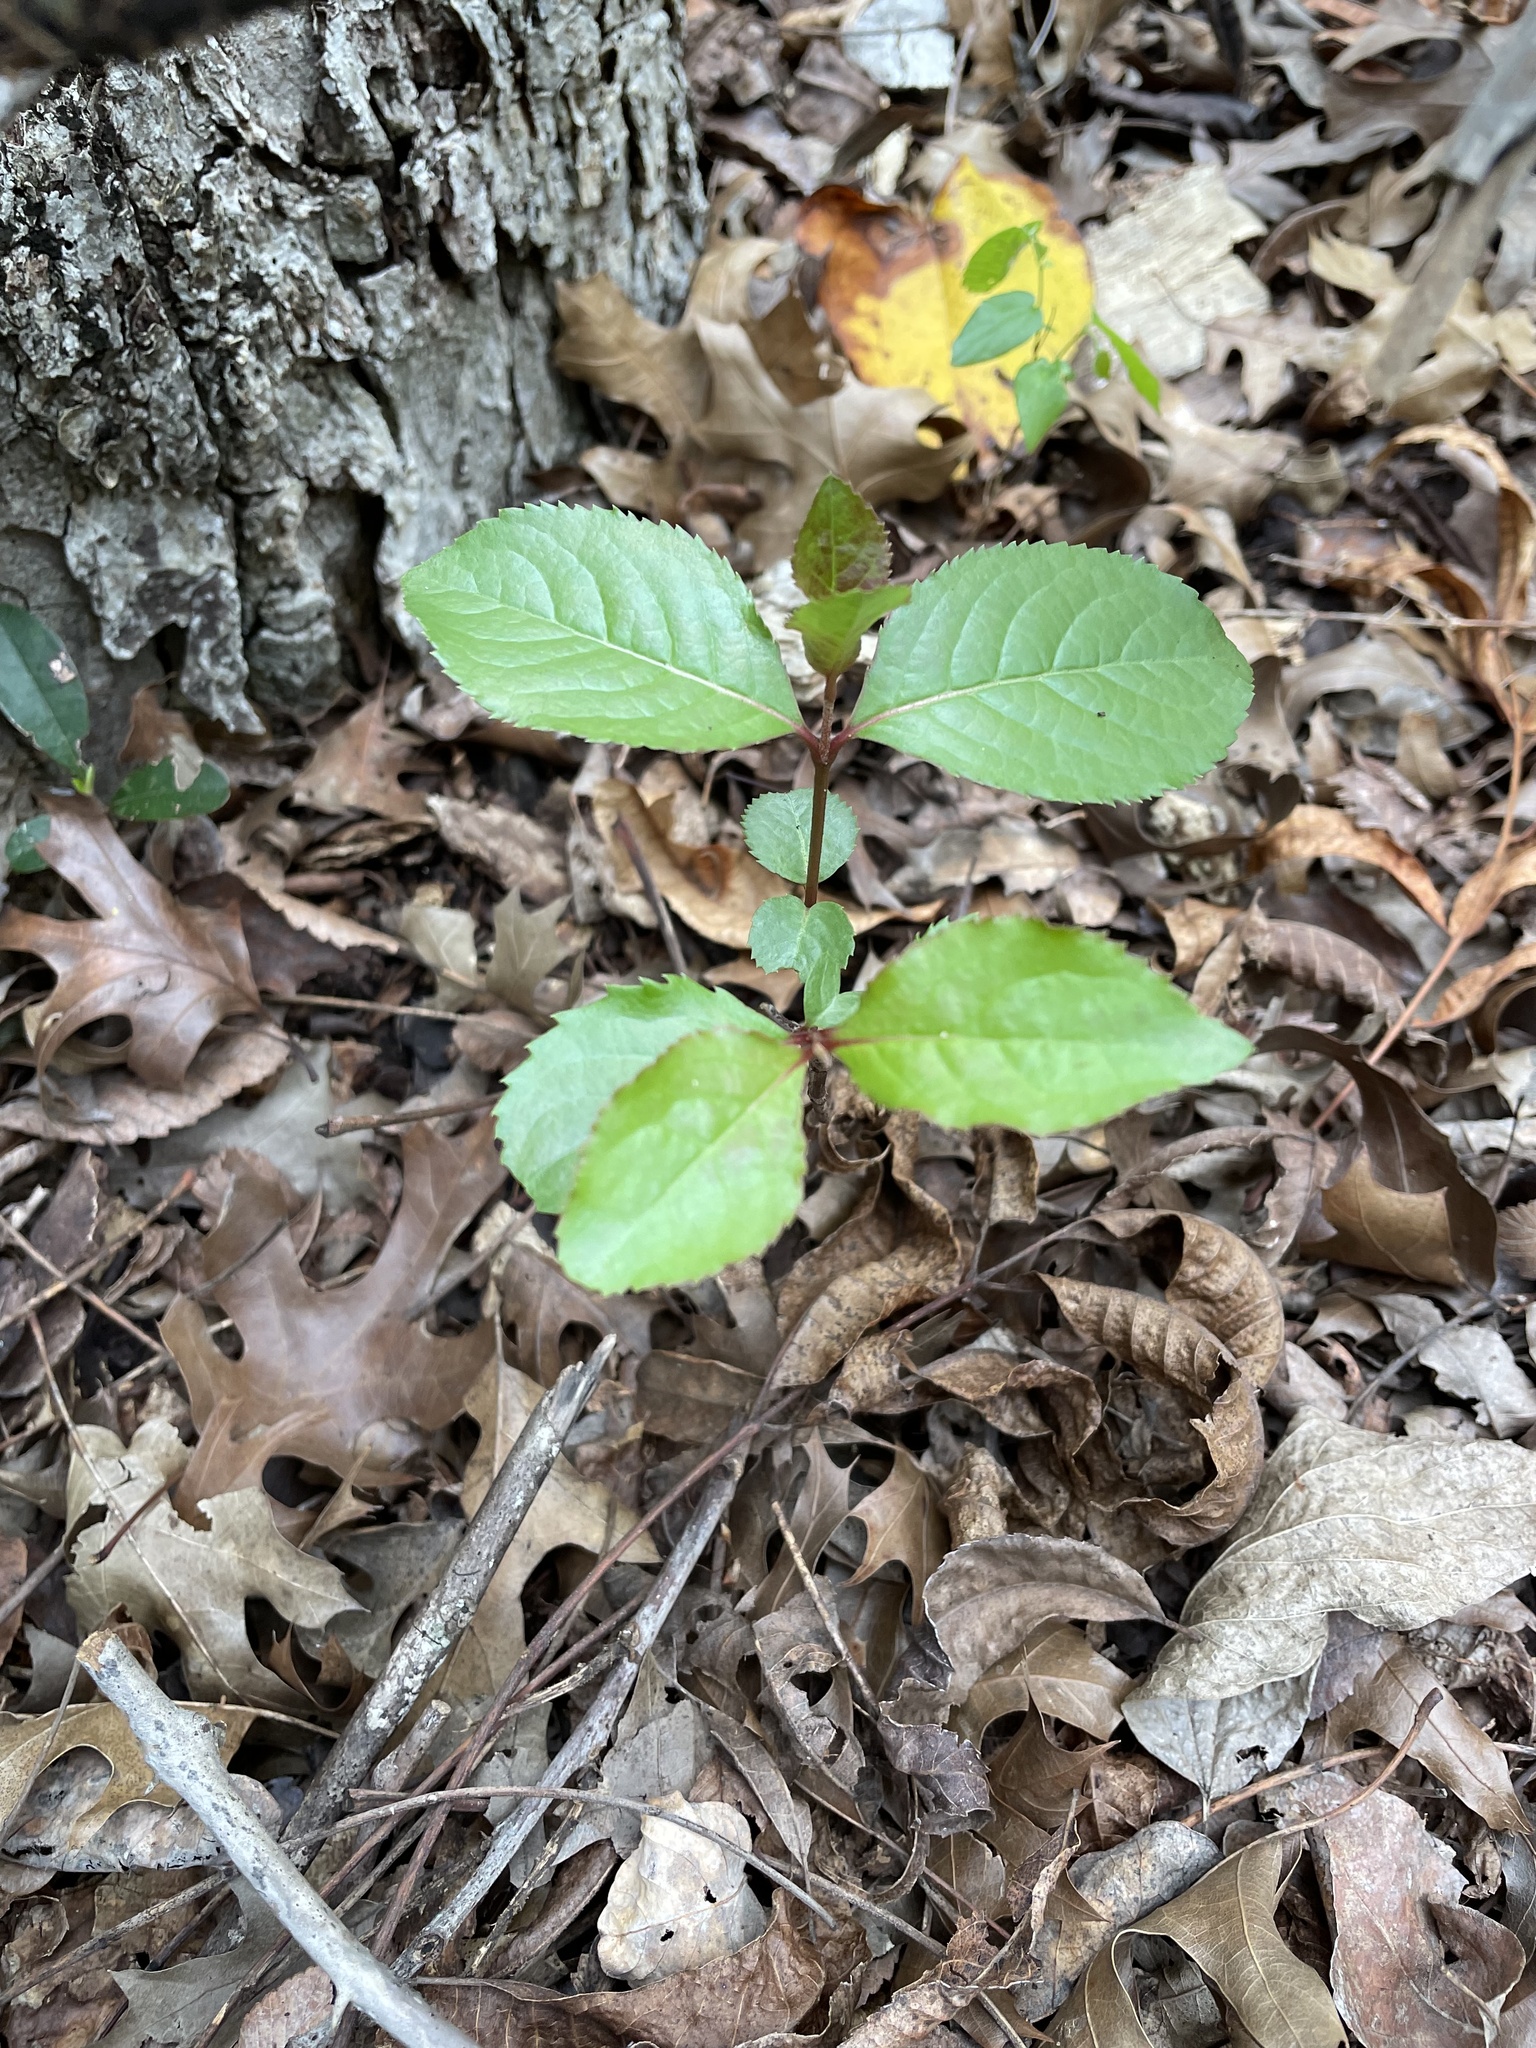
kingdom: Plantae
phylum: Tracheophyta
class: Magnoliopsida
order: Dipsacales
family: Viburnaceae
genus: Viburnum
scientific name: Viburnum rufidulum
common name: Blue haw
